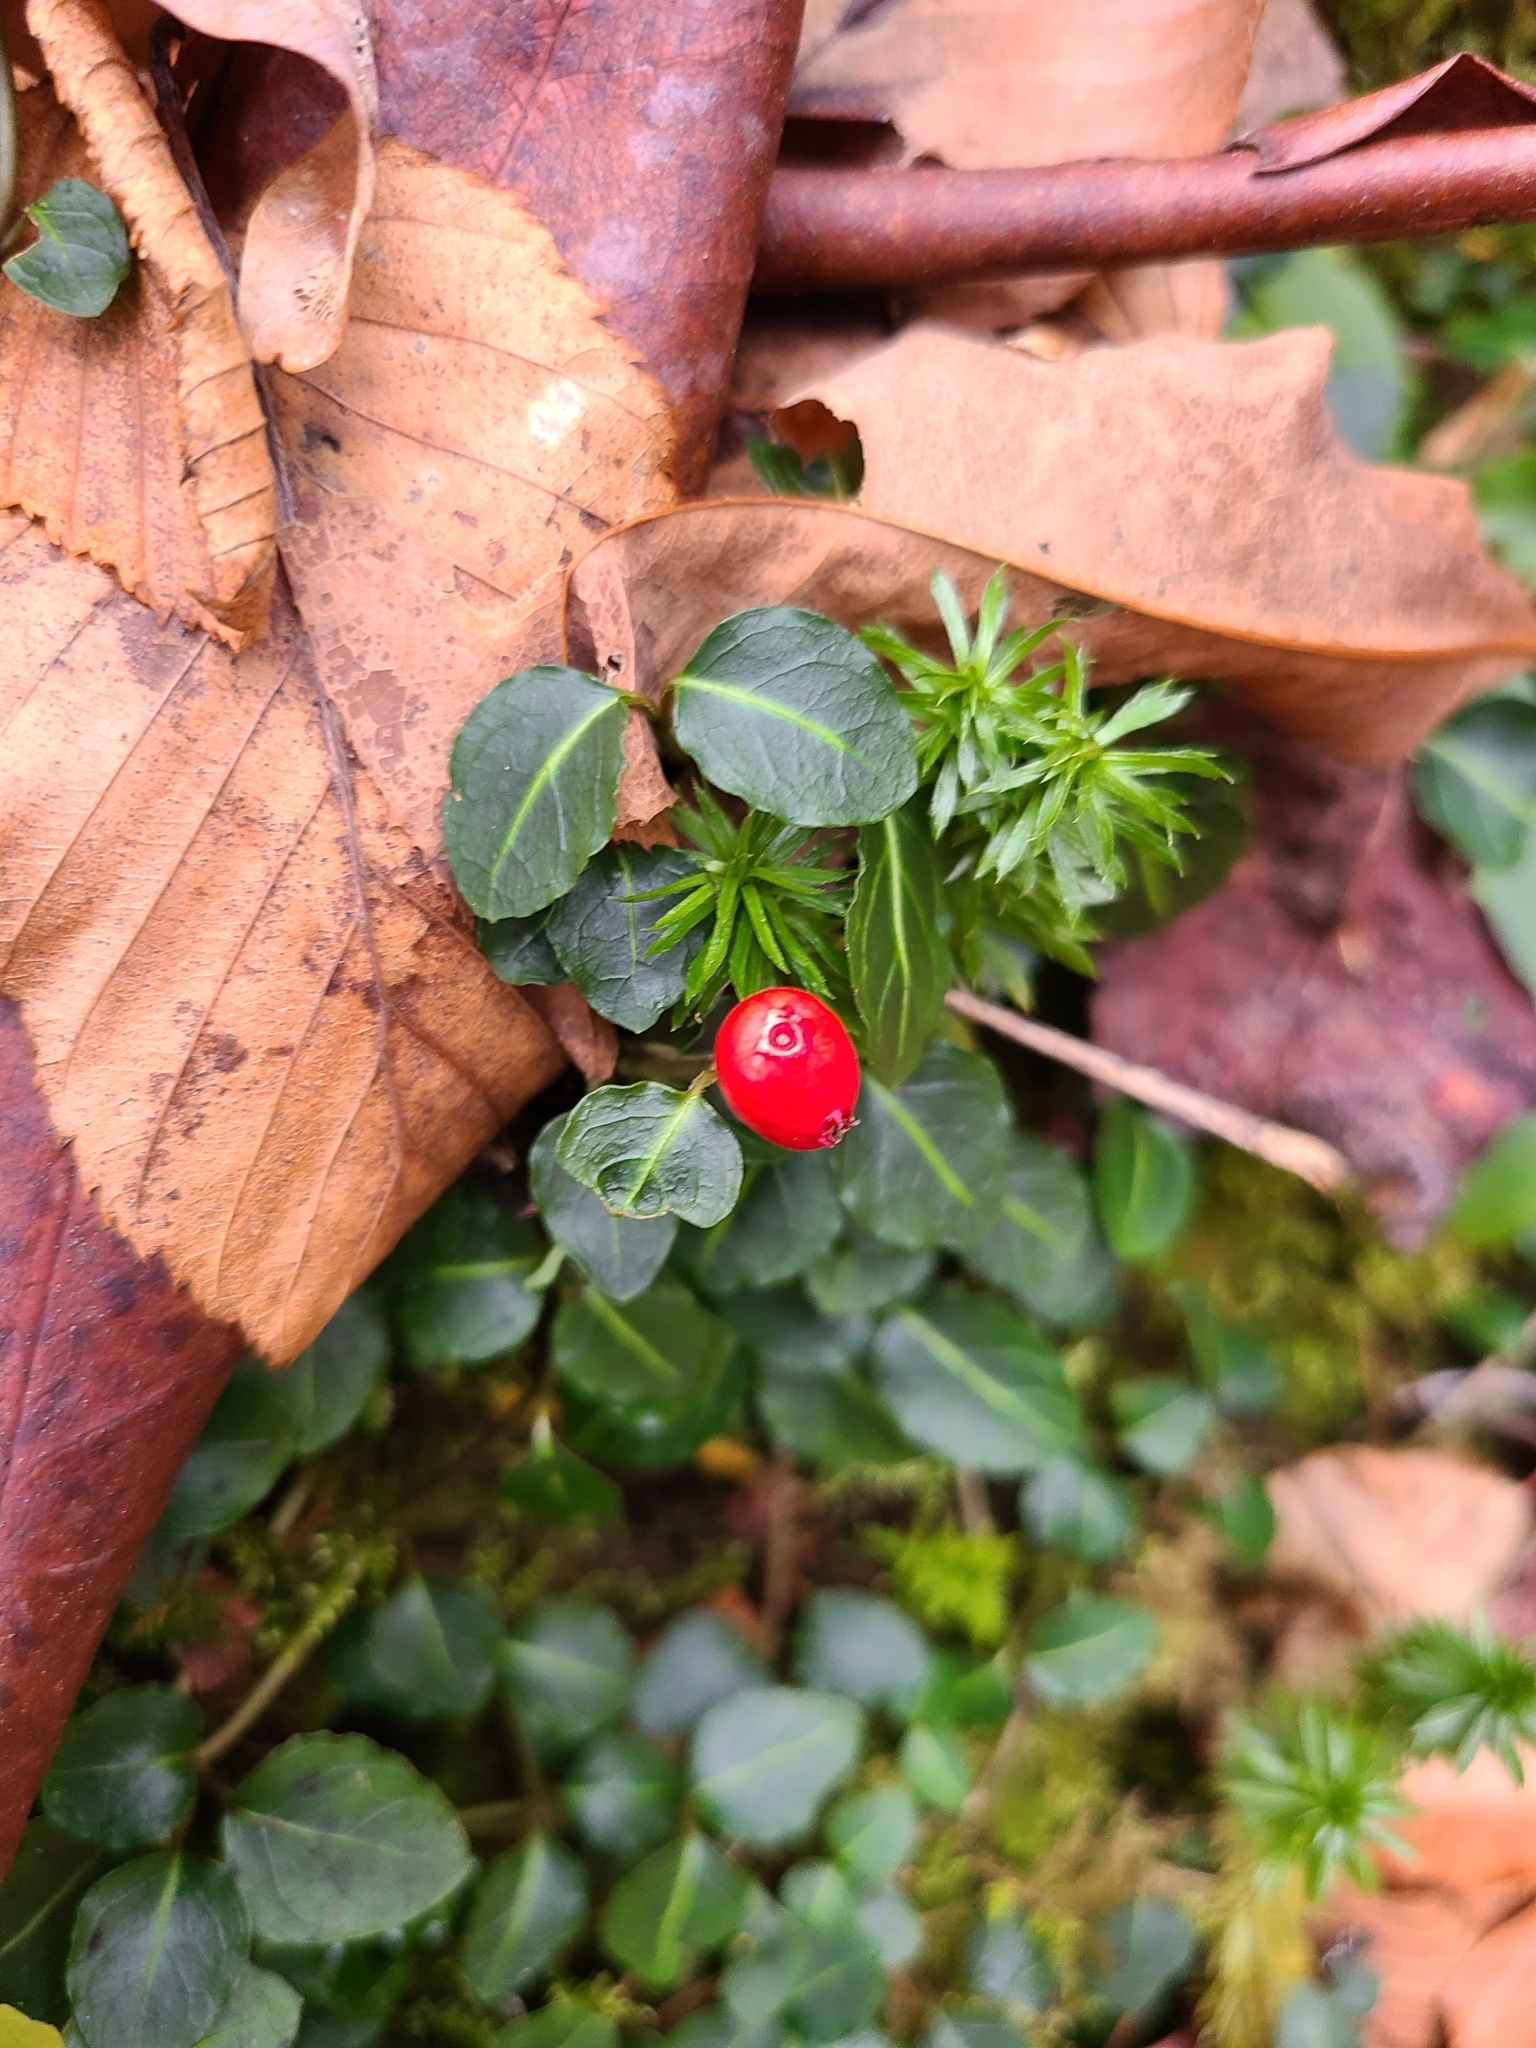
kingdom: Plantae
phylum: Tracheophyta
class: Magnoliopsida
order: Gentianales
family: Rubiaceae
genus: Mitchella
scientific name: Mitchella repens
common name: Partridge-berry
